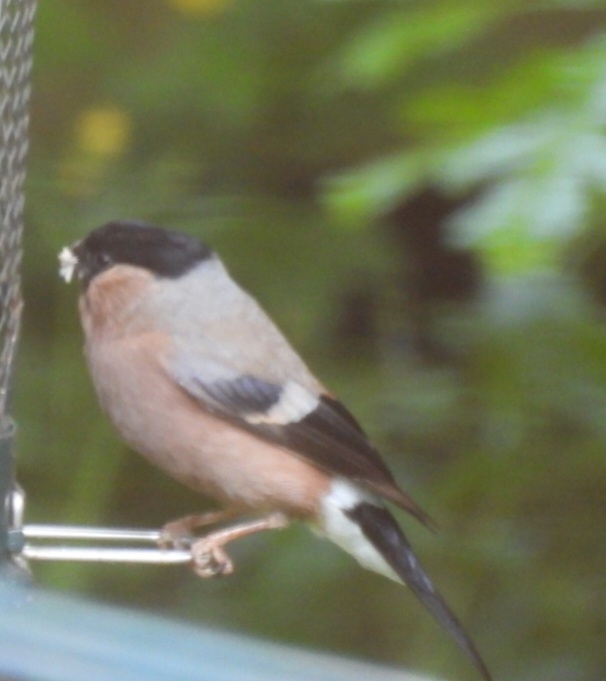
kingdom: Animalia
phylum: Chordata
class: Aves
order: Passeriformes
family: Fringillidae
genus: Pyrrhula
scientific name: Pyrrhula pyrrhula
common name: Eurasian bullfinch
